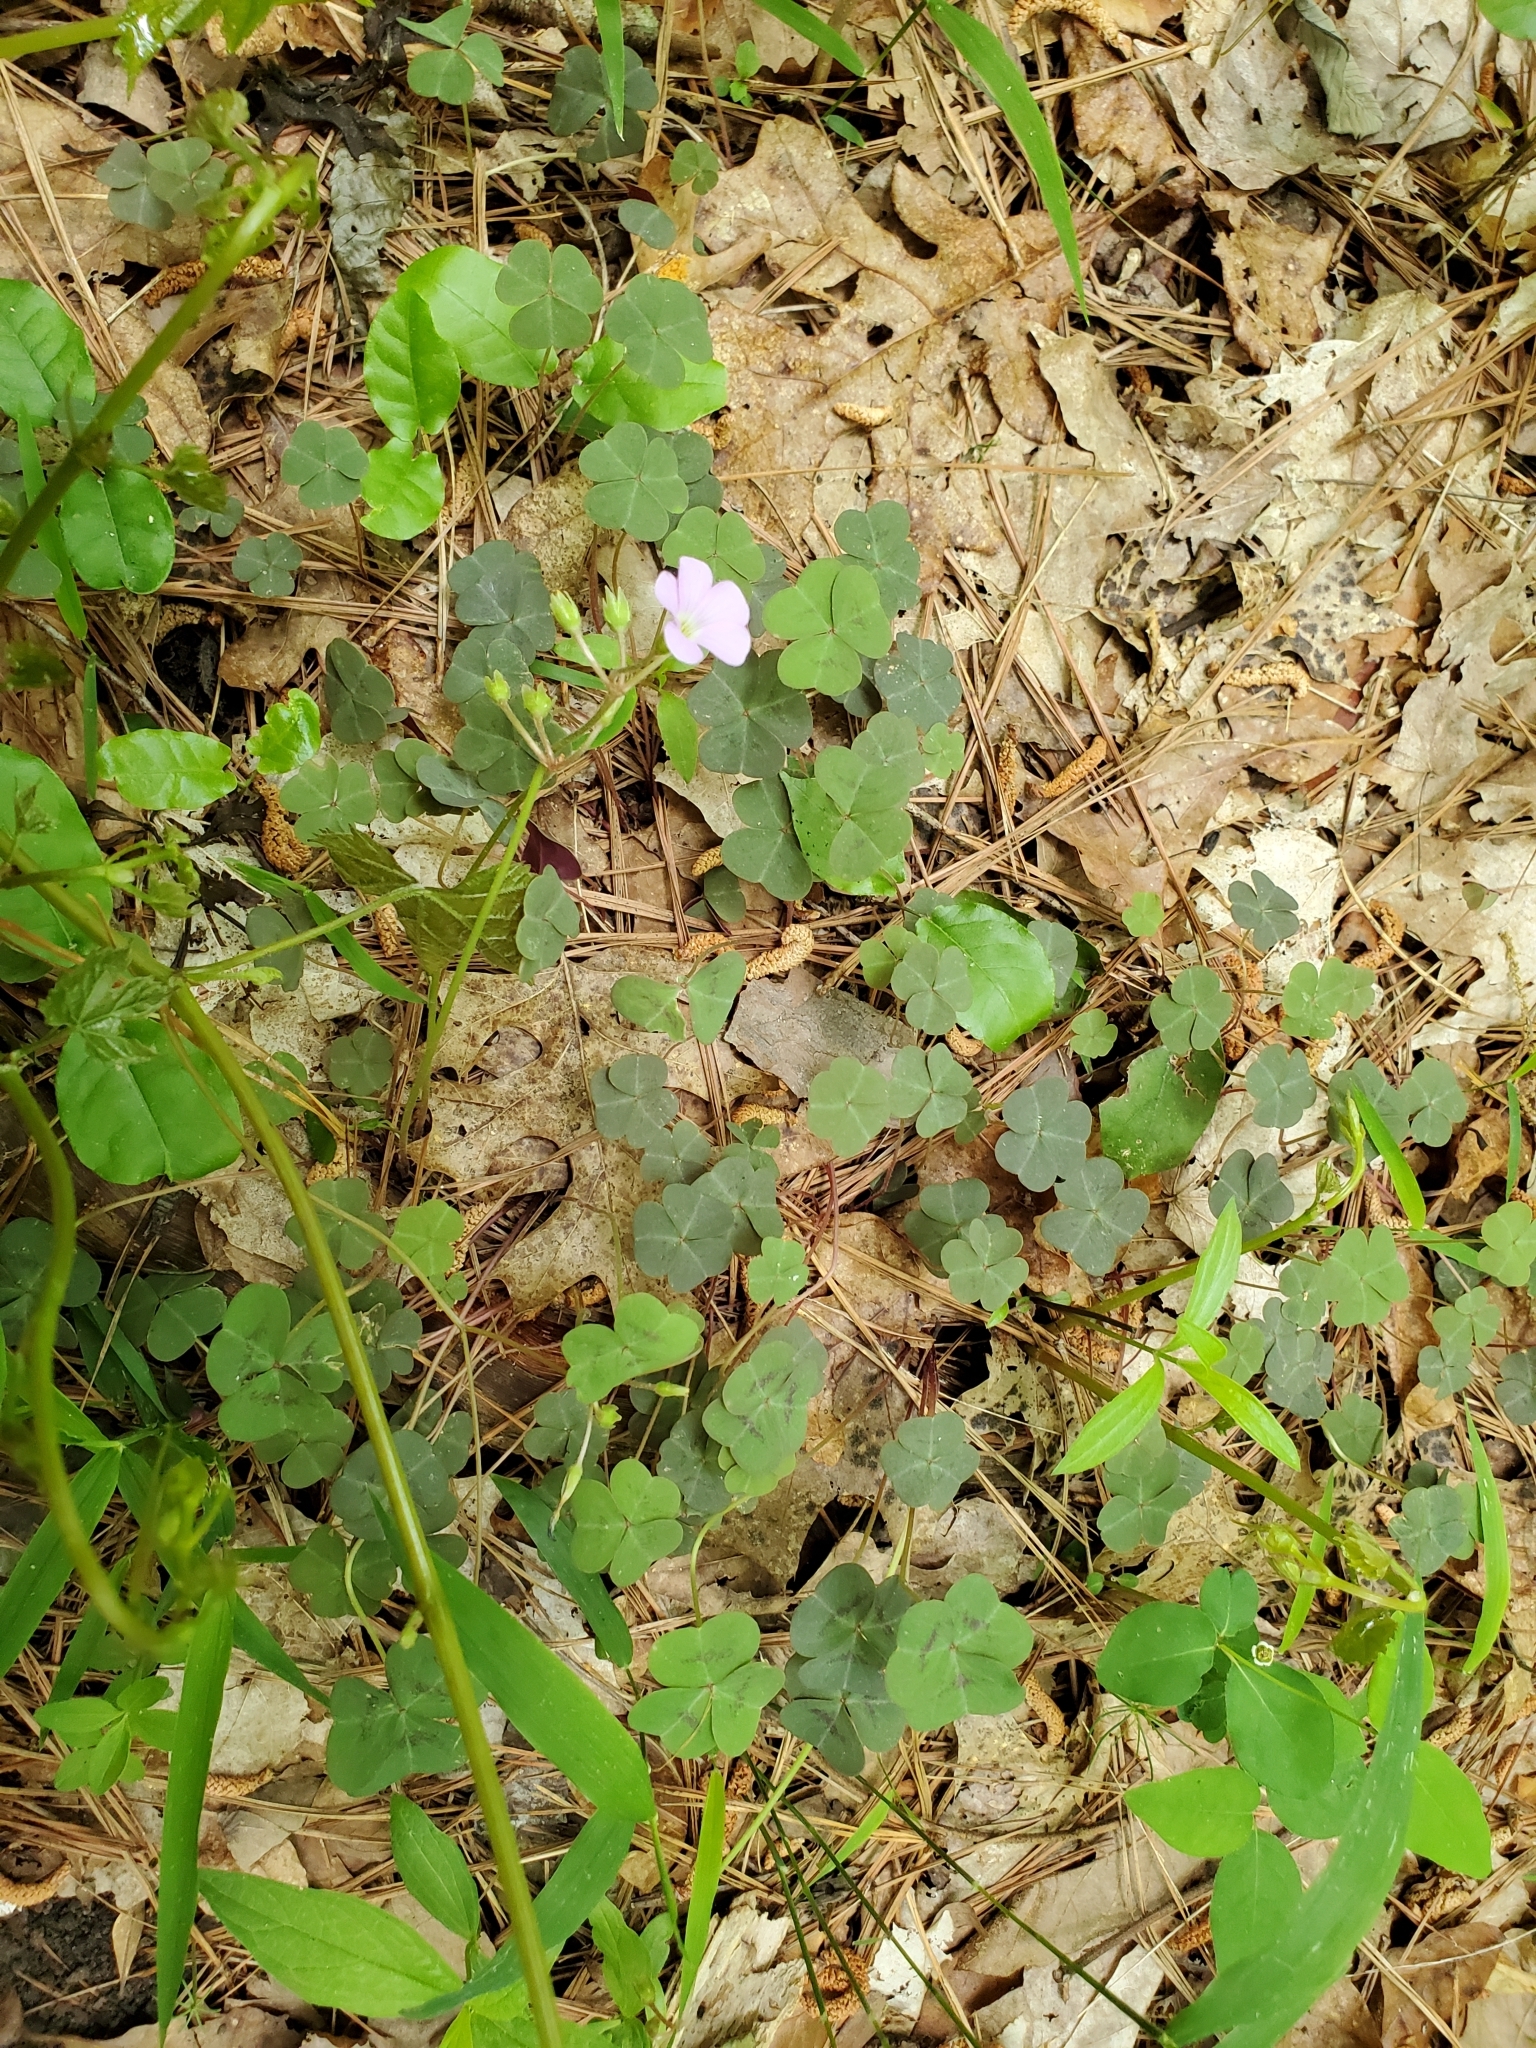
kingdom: Plantae
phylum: Tracheophyta
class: Magnoliopsida
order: Oxalidales
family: Oxalidaceae
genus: Oxalis
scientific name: Oxalis violacea
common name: Violet wood-sorrel
